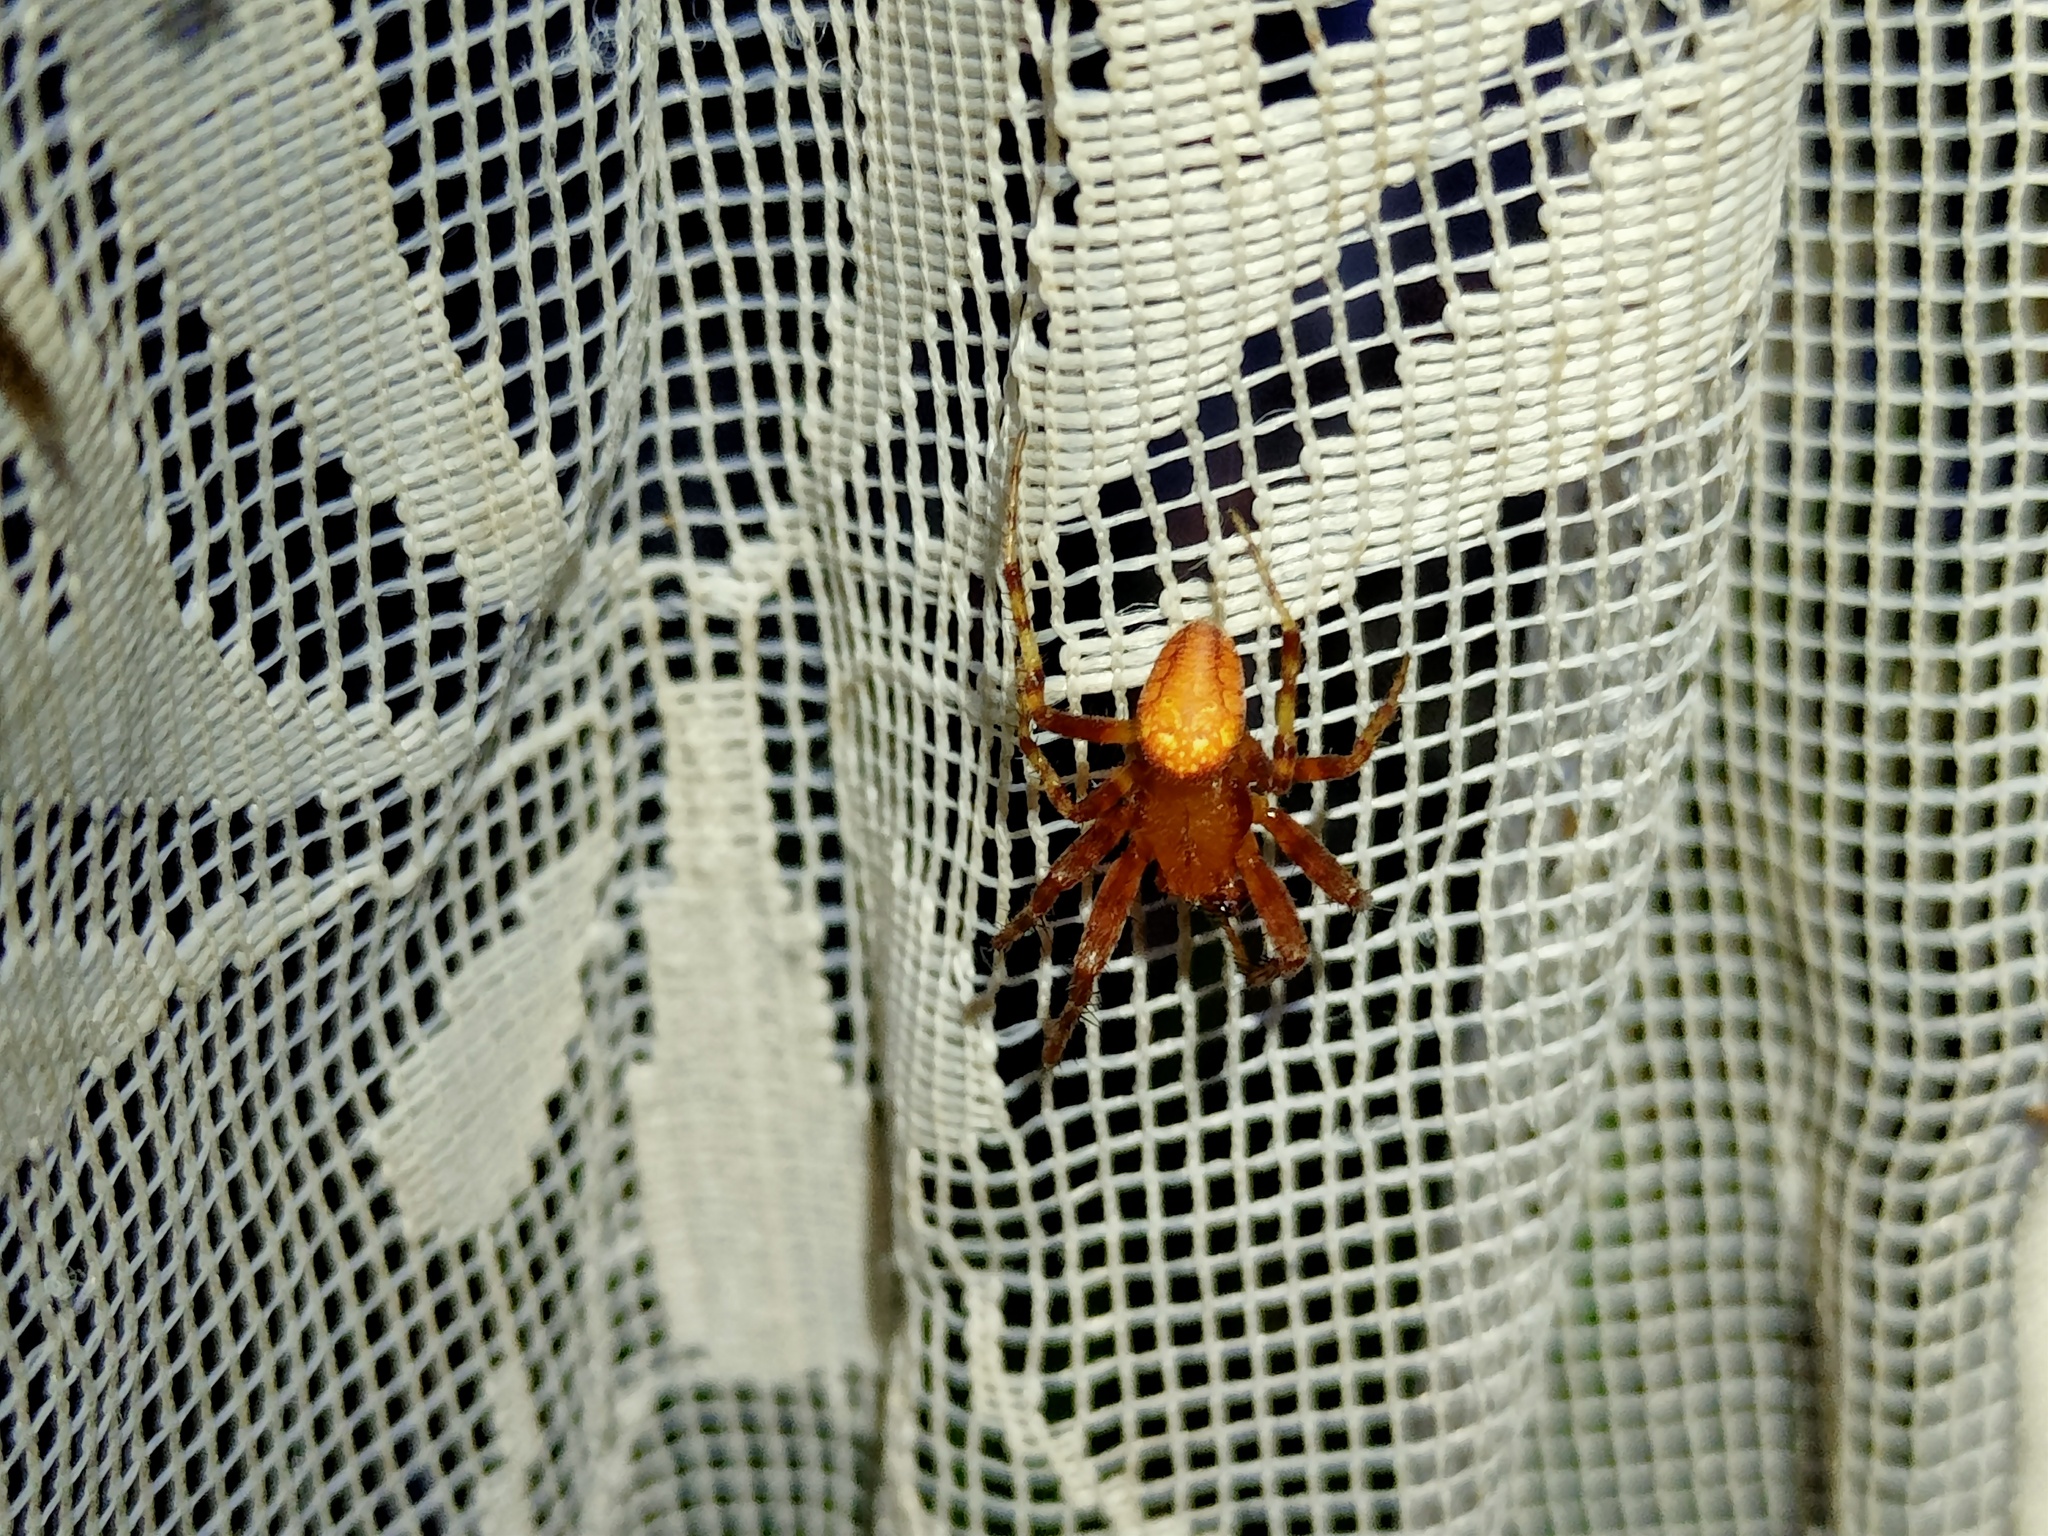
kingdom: Animalia
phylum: Arthropoda
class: Arachnida
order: Araneae
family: Araneidae
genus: Araneus
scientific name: Araneus alsine
